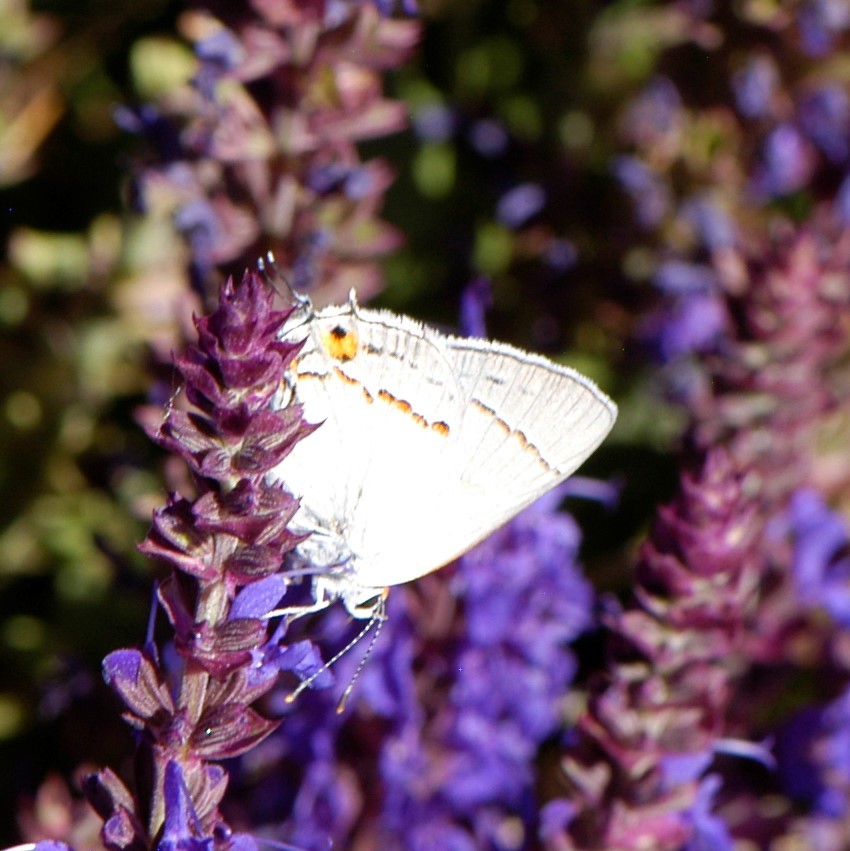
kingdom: Animalia
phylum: Arthropoda
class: Insecta
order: Lepidoptera
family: Lycaenidae
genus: Strymon
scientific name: Strymon melinus
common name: Gray hairstreak
